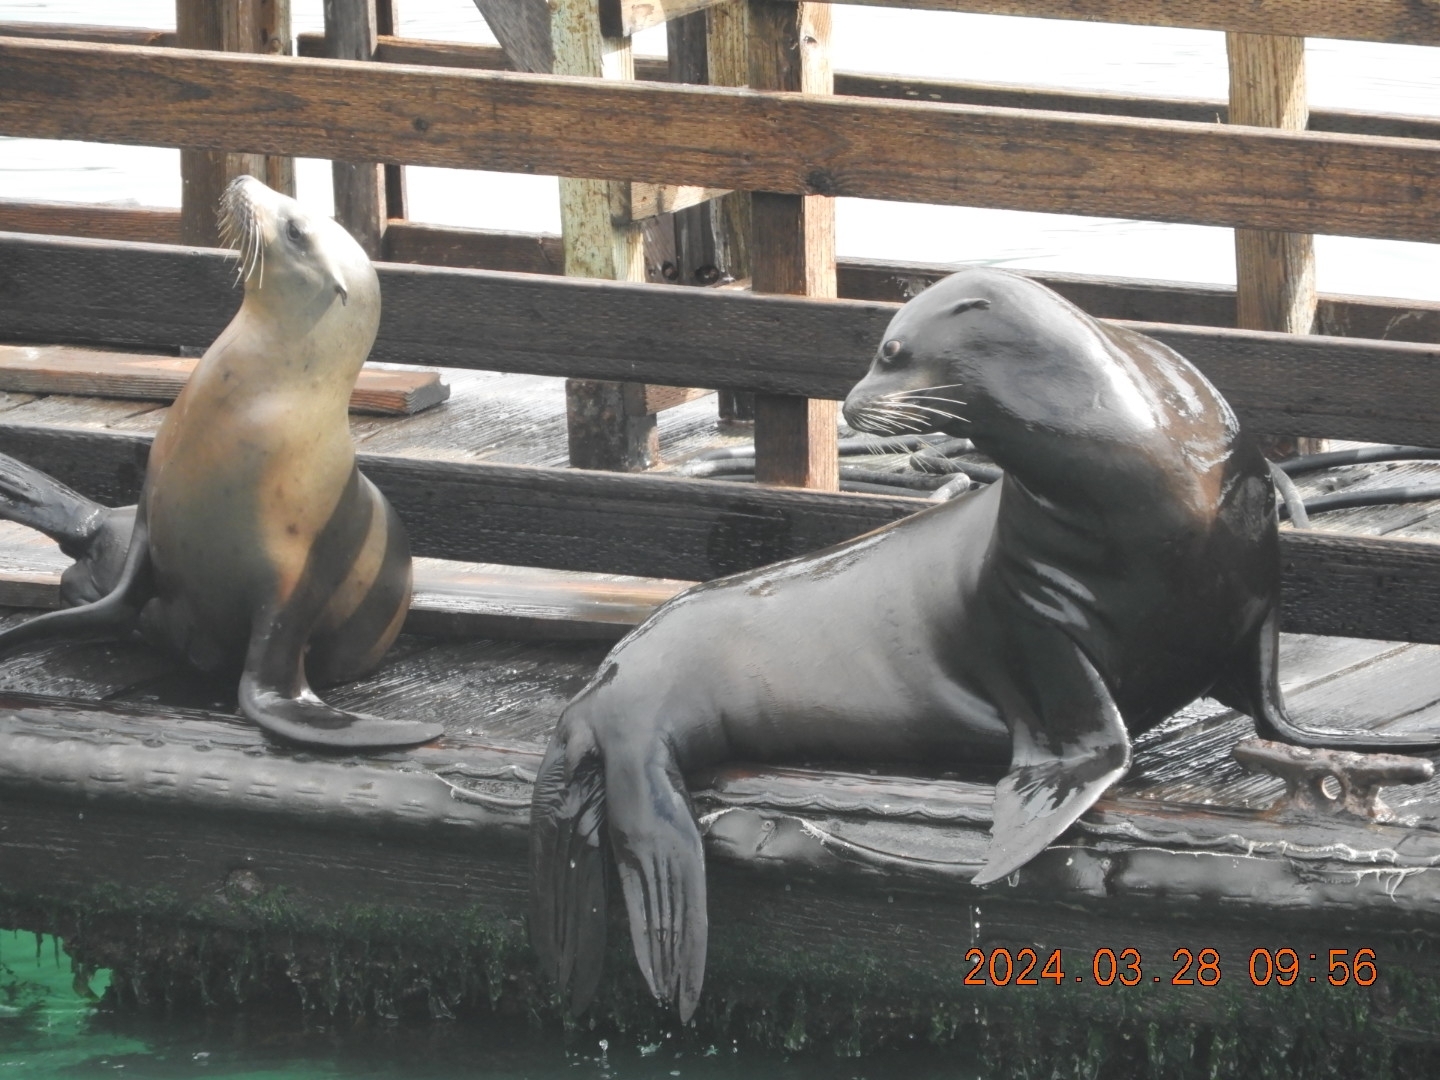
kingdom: Animalia
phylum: Chordata
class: Mammalia
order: Carnivora
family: Otariidae
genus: Zalophus
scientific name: Zalophus californianus
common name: California sea lion
